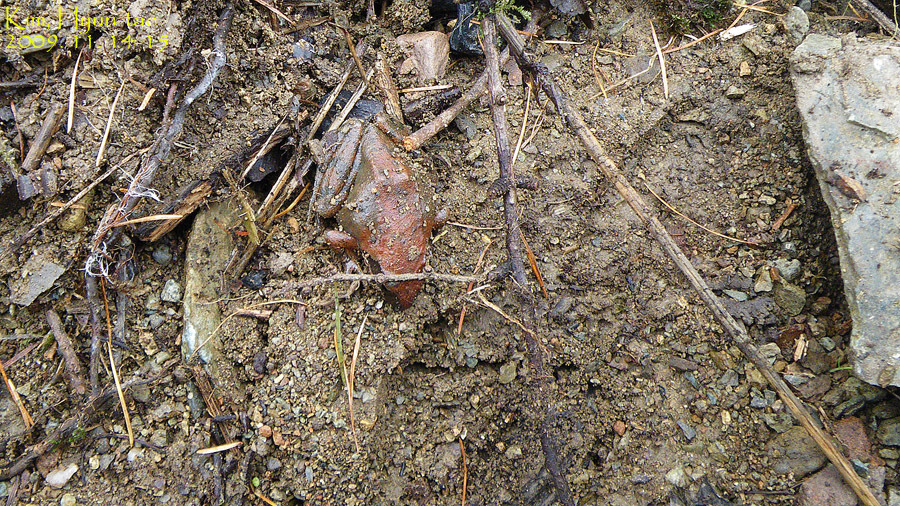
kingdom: Animalia
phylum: Chordata
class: Amphibia
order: Anura
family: Ranidae
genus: Rana
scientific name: Rana huanrenensis
